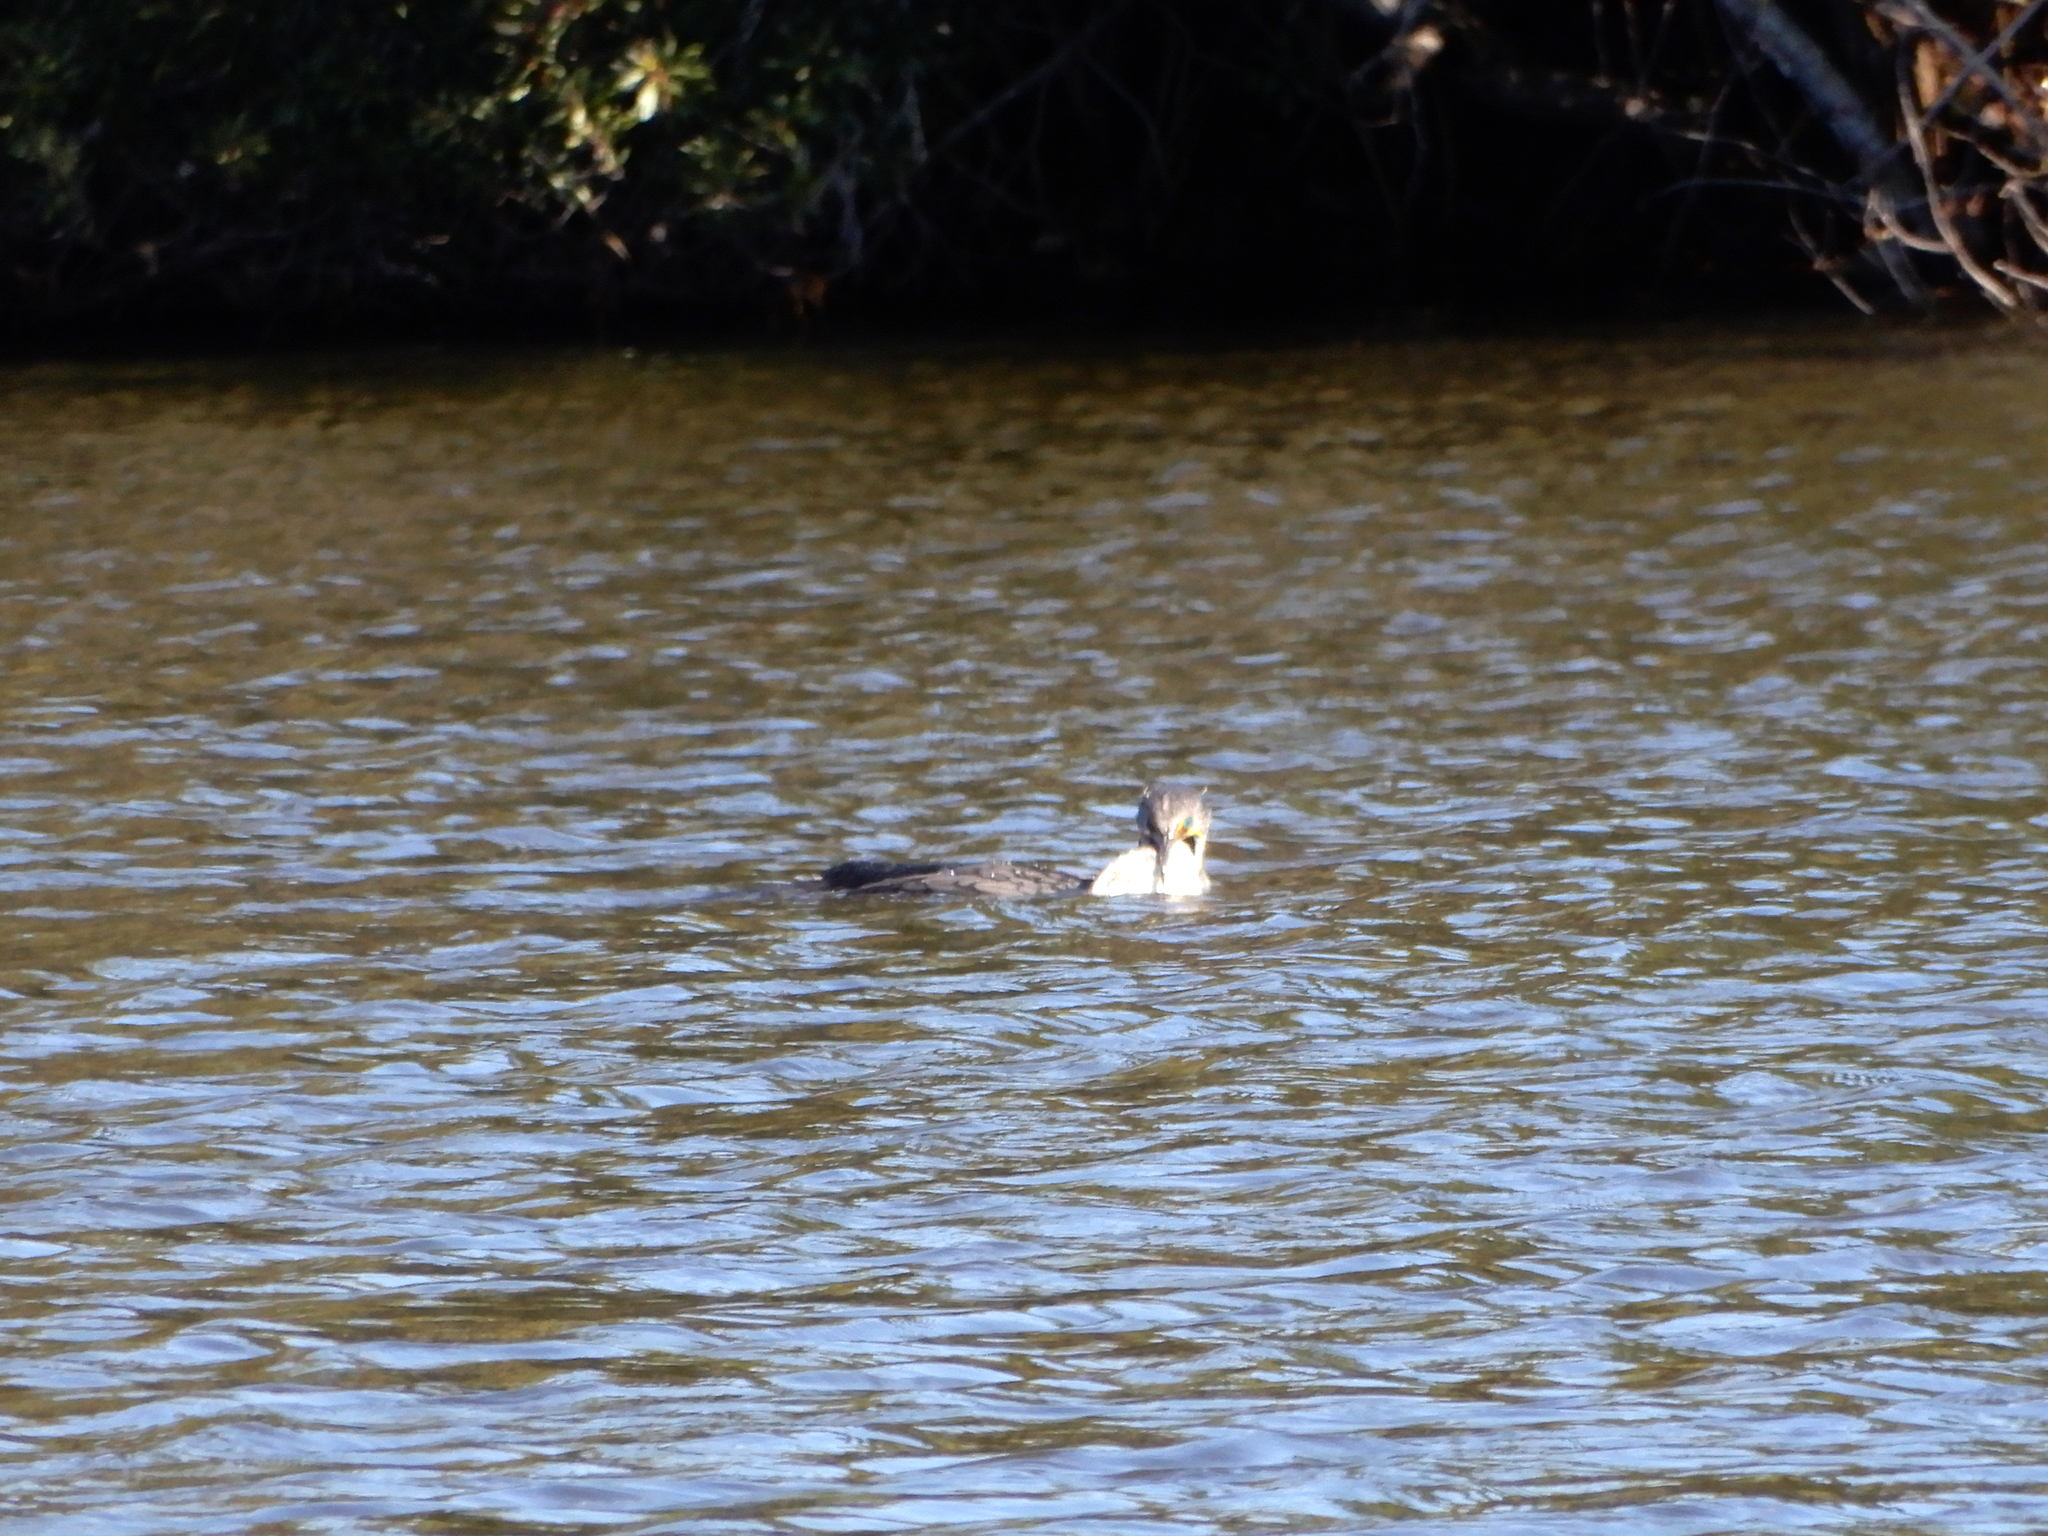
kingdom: Animalia
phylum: Chordata
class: Aves
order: Suliformes
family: Phalacrocoracidae
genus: Phalacrocorax
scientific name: Phalacrocorax auritus
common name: Double-crested cormorant
